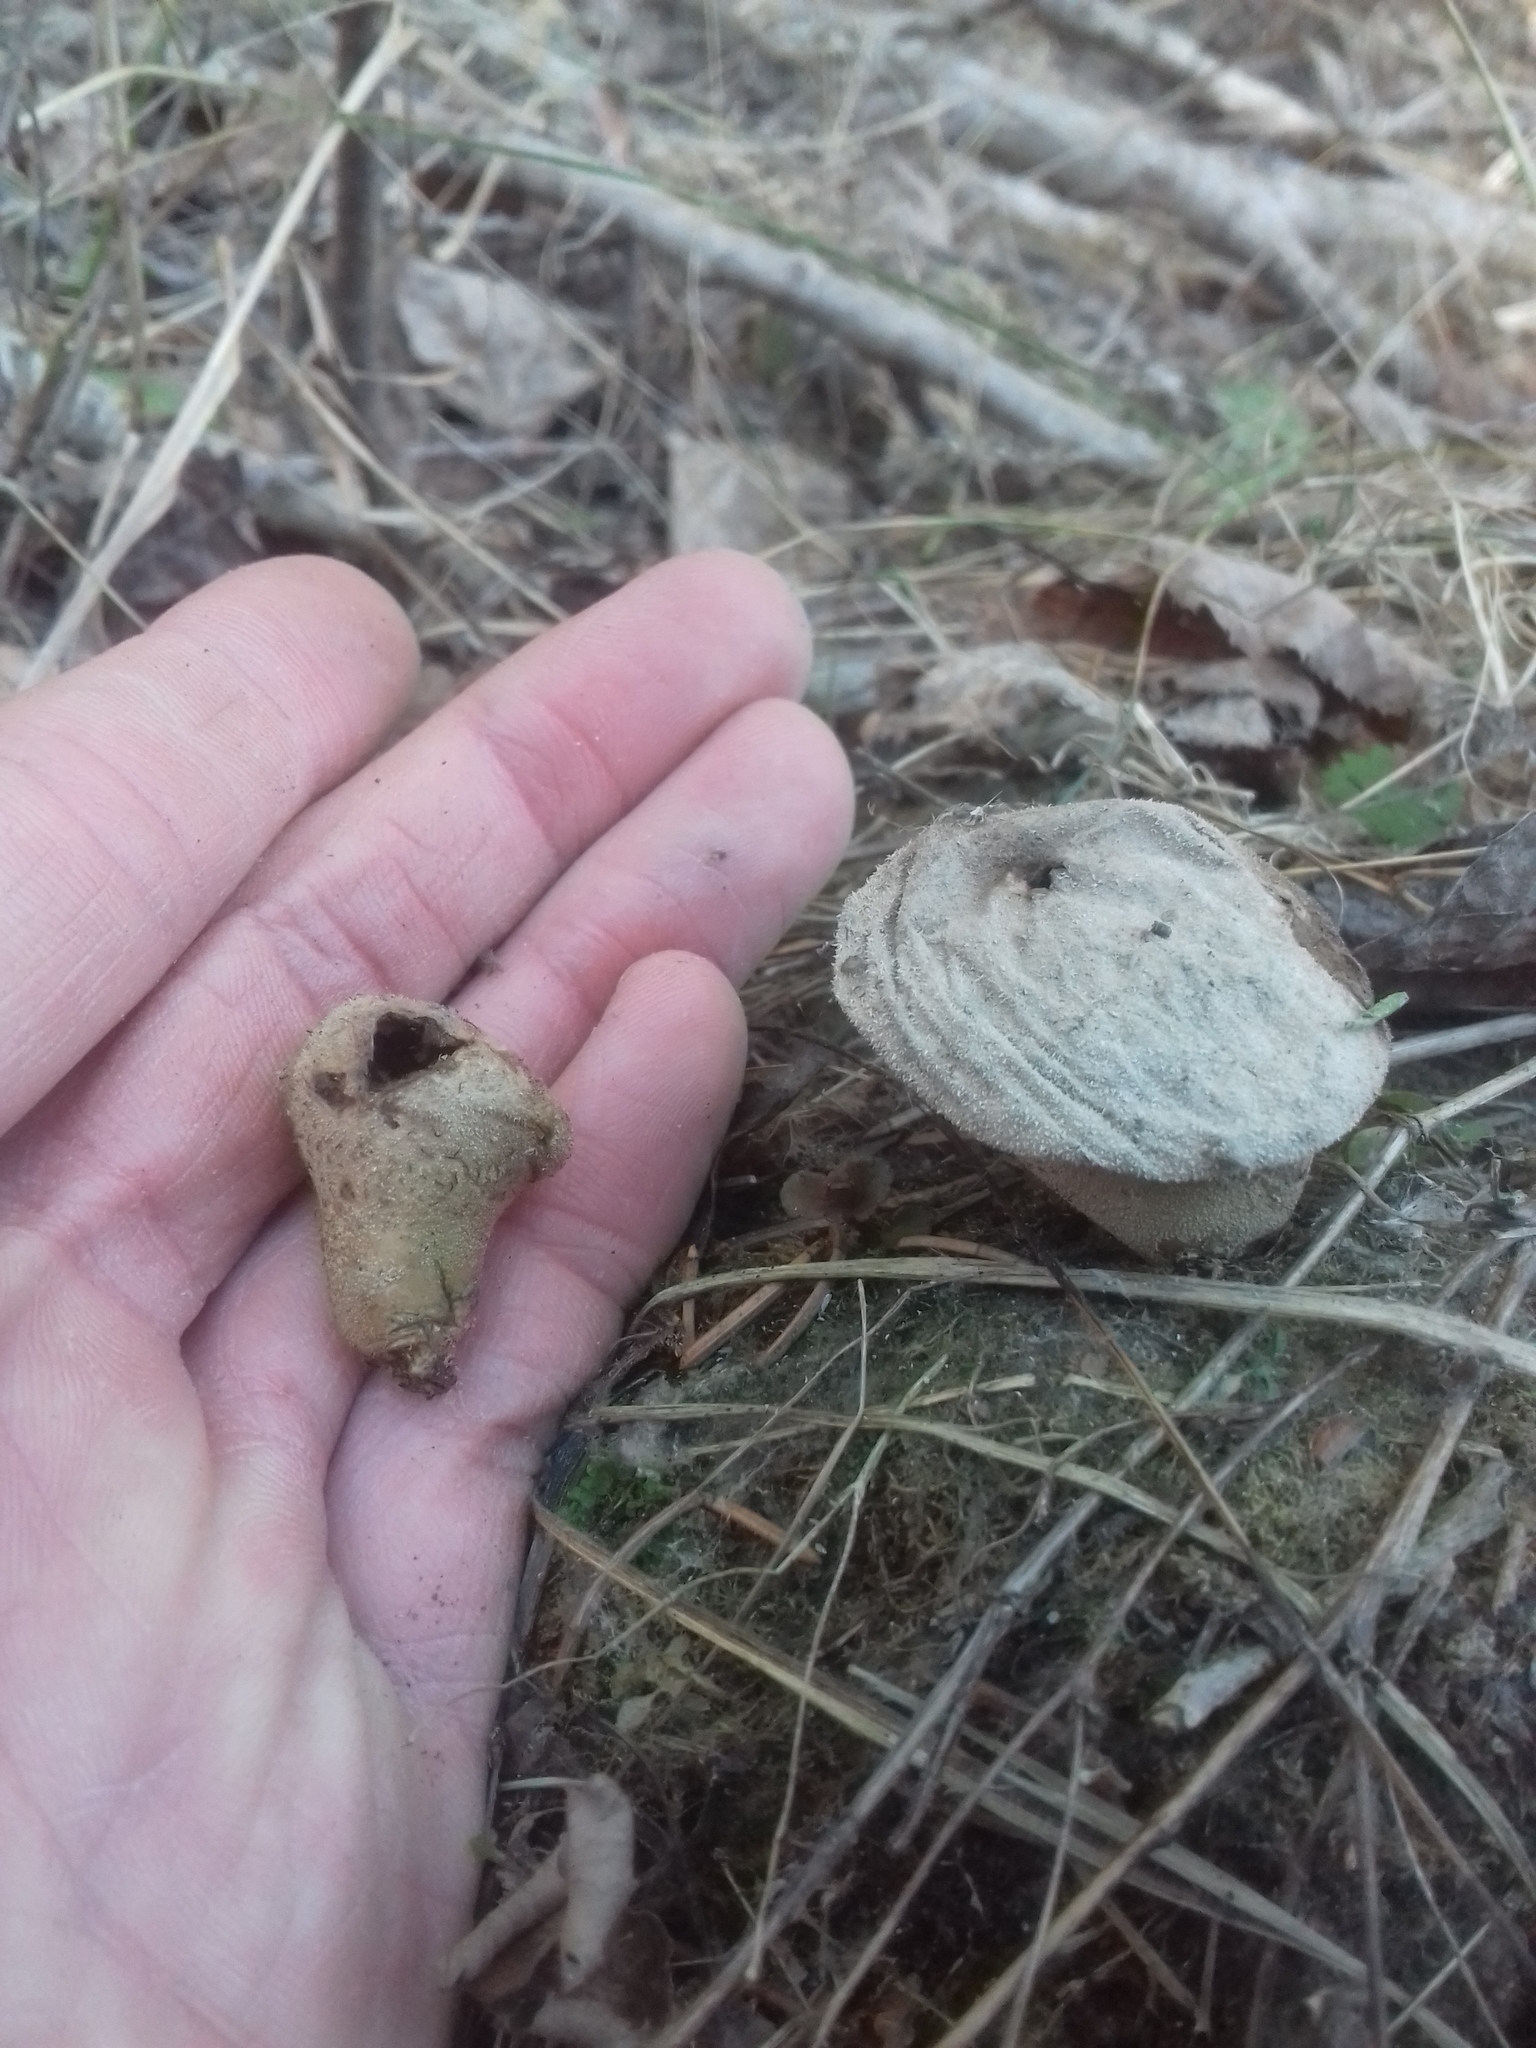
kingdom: Fungi
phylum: Basidiomycota
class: Agaricomycetes
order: Agaricales
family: Lycoperdaceae
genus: Apioperdon
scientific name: Apioperdon pyriforme
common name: Pear-shaped puffball
